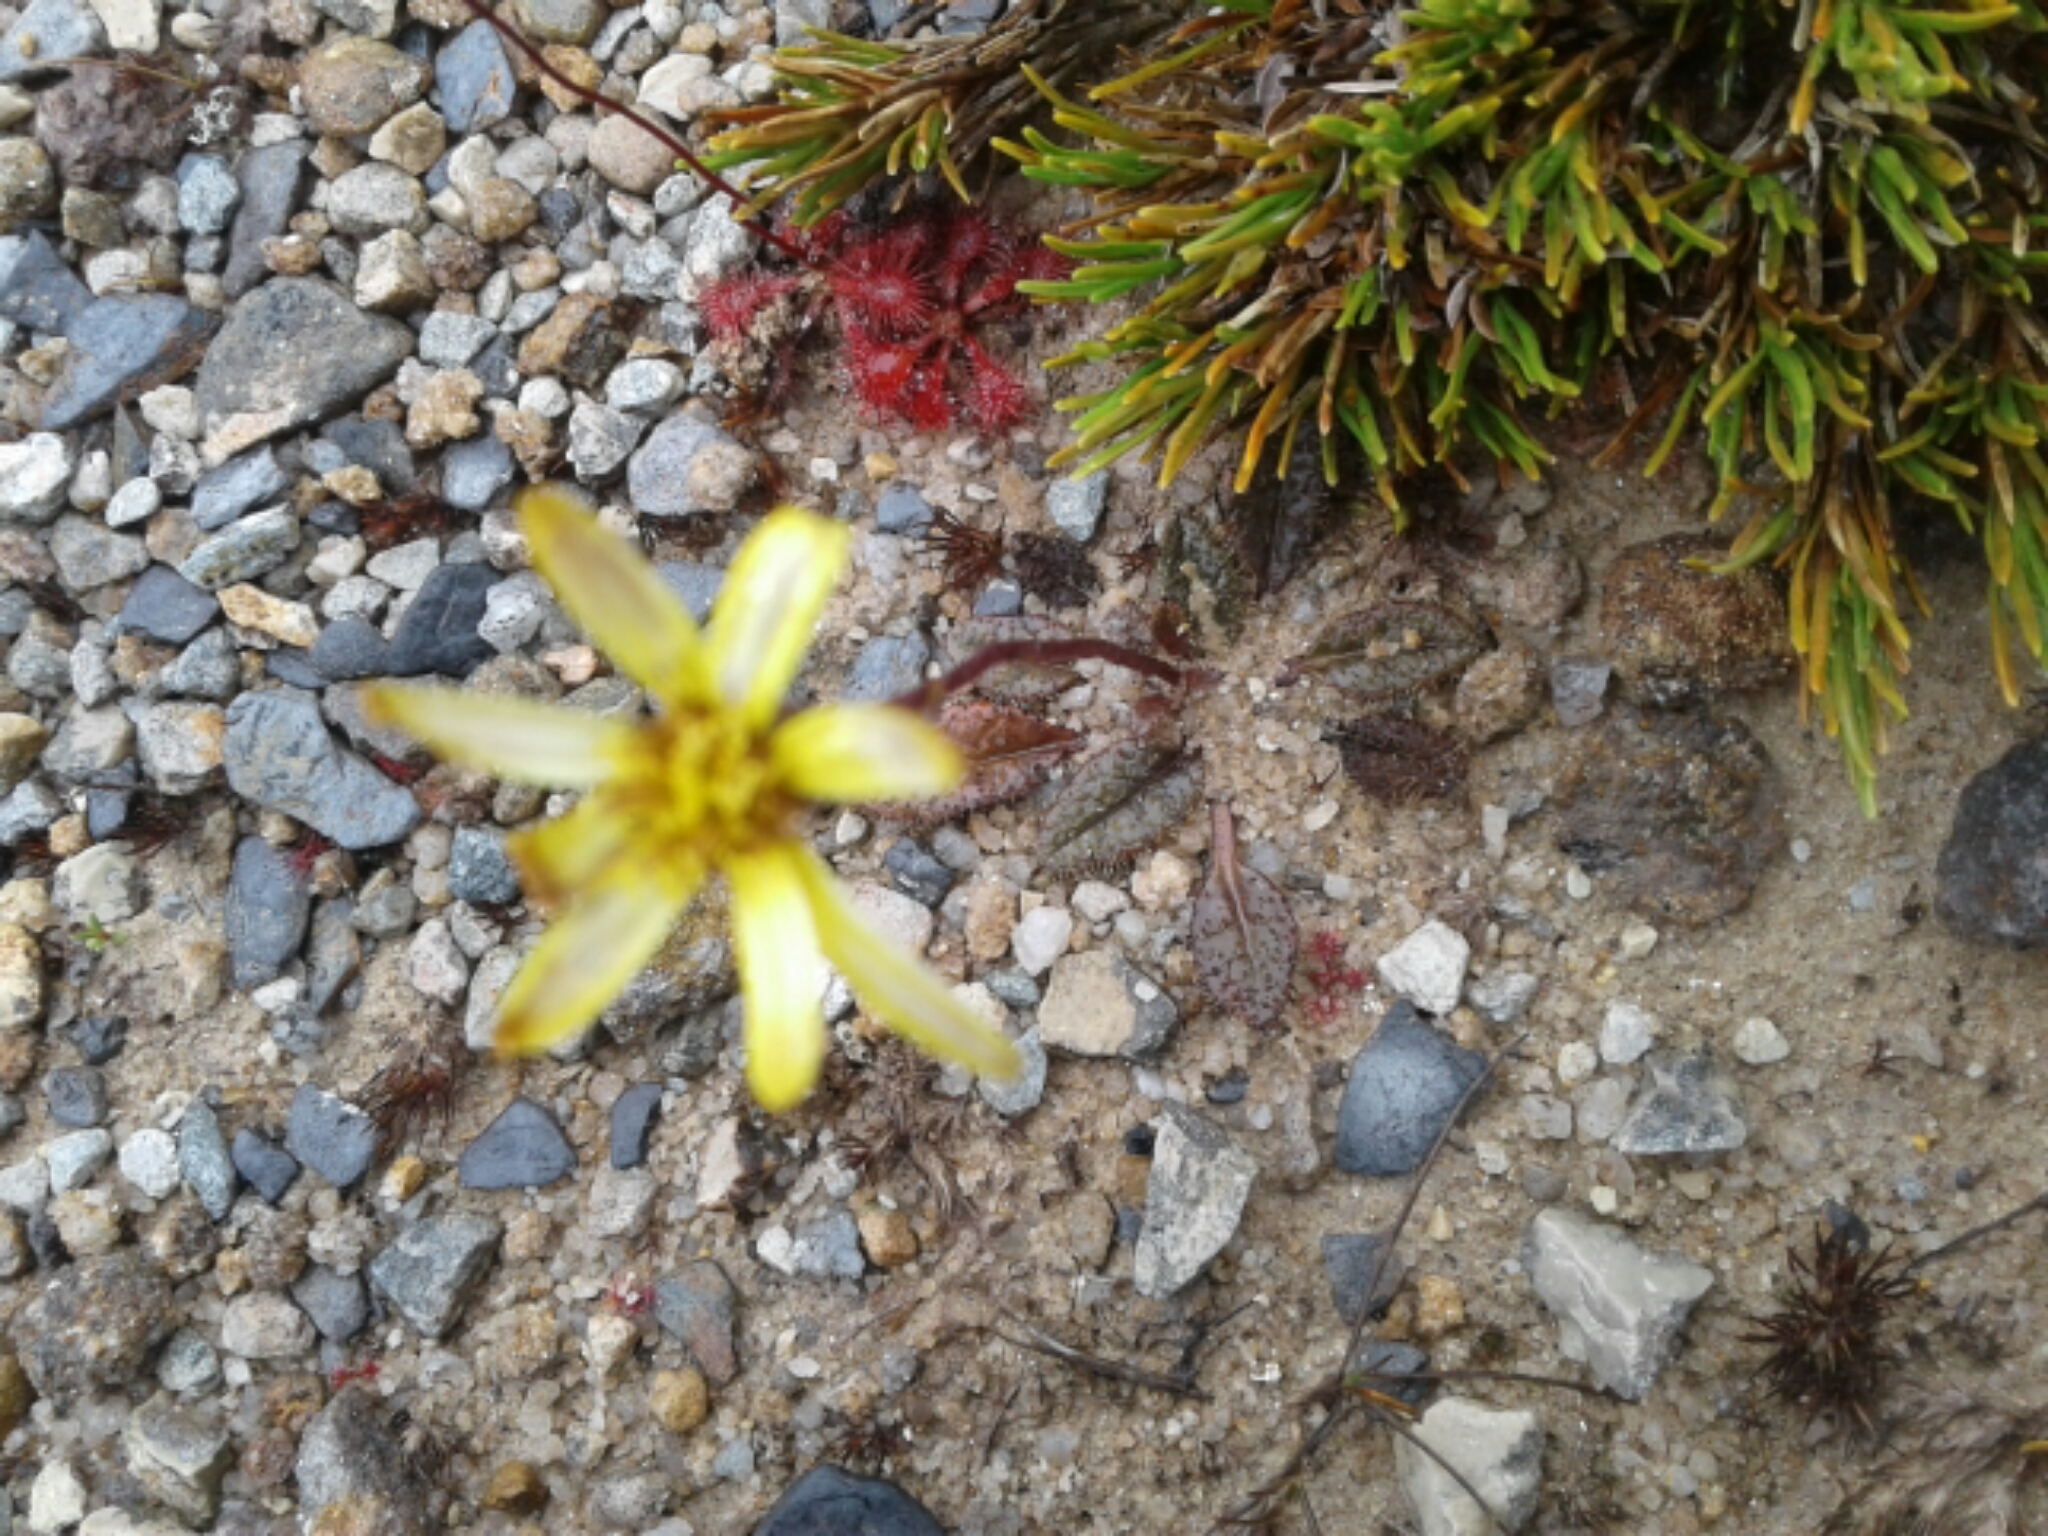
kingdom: Plantae
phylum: Tracheophyta
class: Magnoliopsida
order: Asterales
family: Asteraceae
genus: Brachyglottis
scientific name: Brachyglottis traversii
